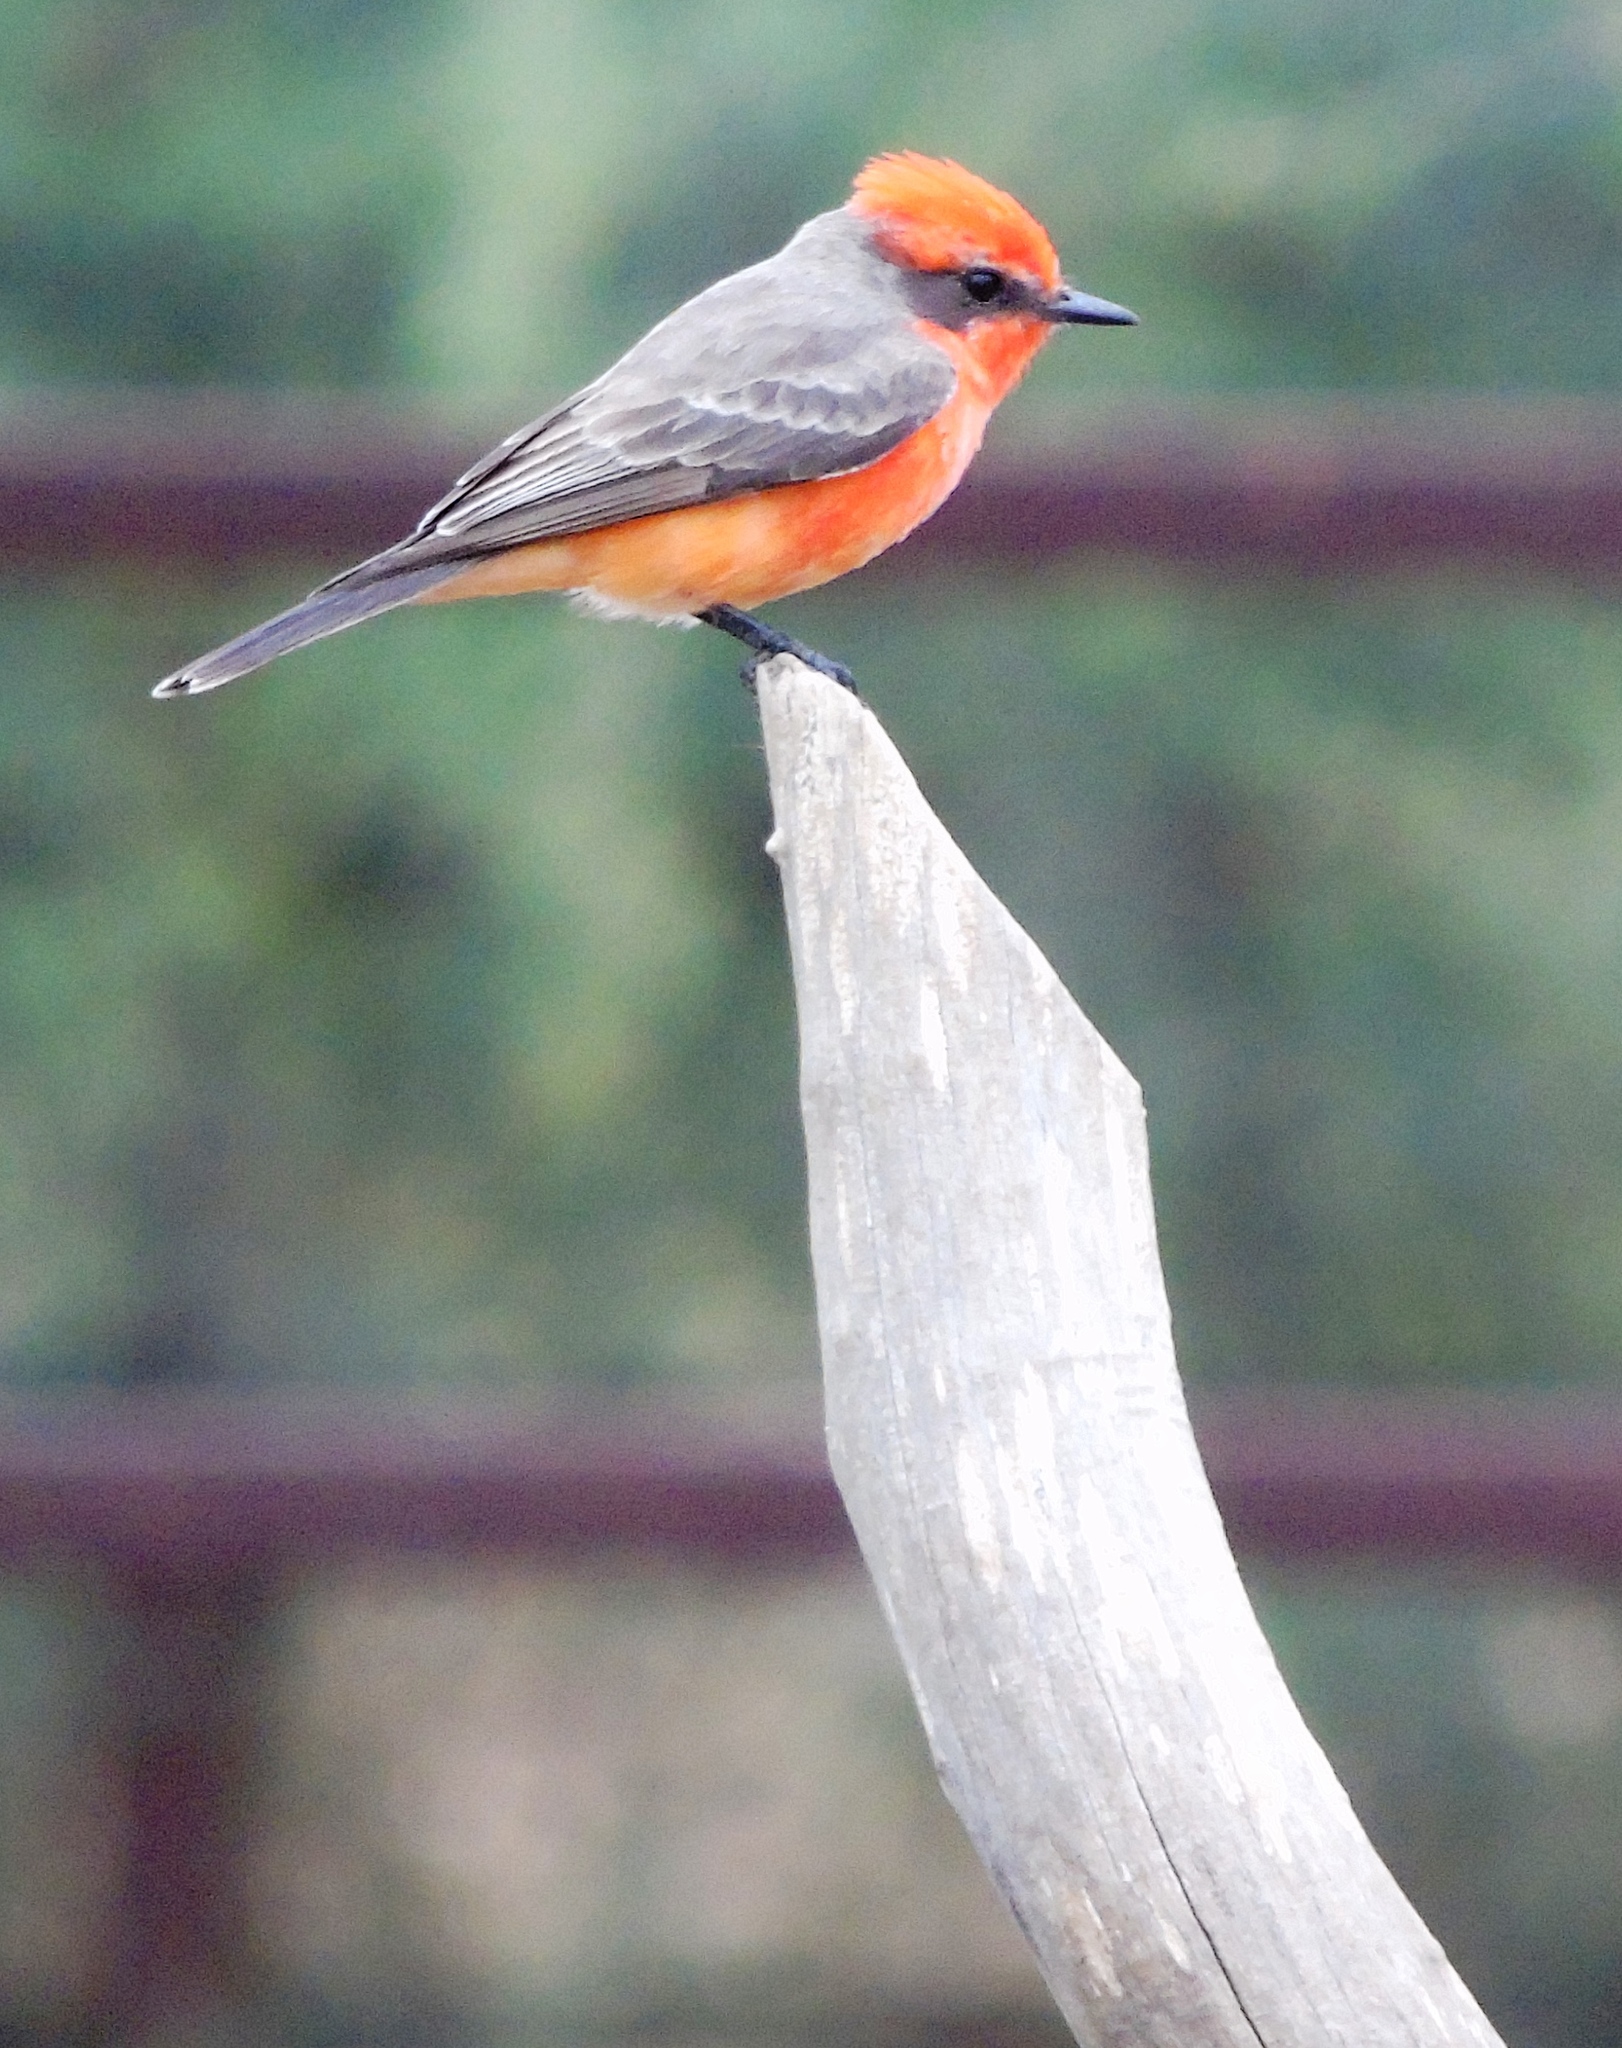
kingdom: Animalia
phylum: Chordata
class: Aves
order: Passeriformes
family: Tyrannidae
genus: Pyrocephalus
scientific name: Pyrocephalus rubinus
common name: Vermilion flycatcher
